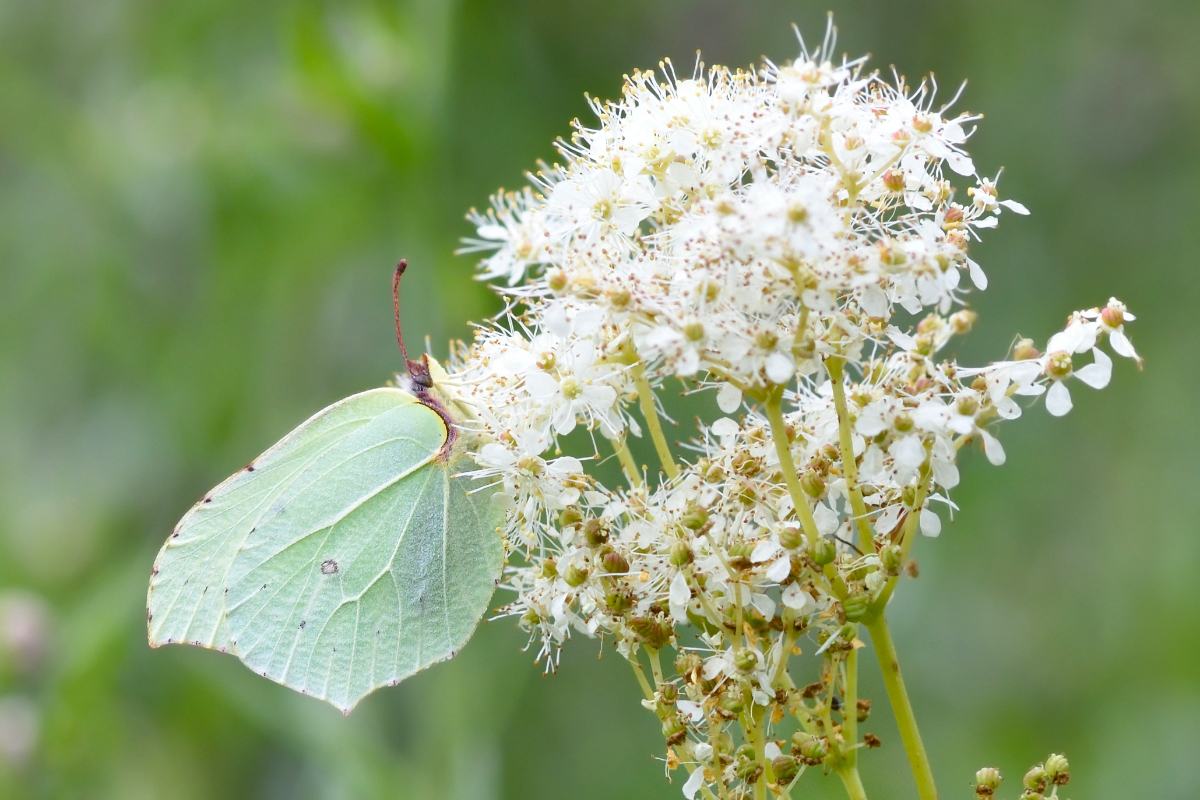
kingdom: Animalia
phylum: Arthropoda
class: Insecta
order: Lepidoptera
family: Pieridae
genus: Gonepteryx
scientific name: Gonepteryx rhamni
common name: Brimstone
